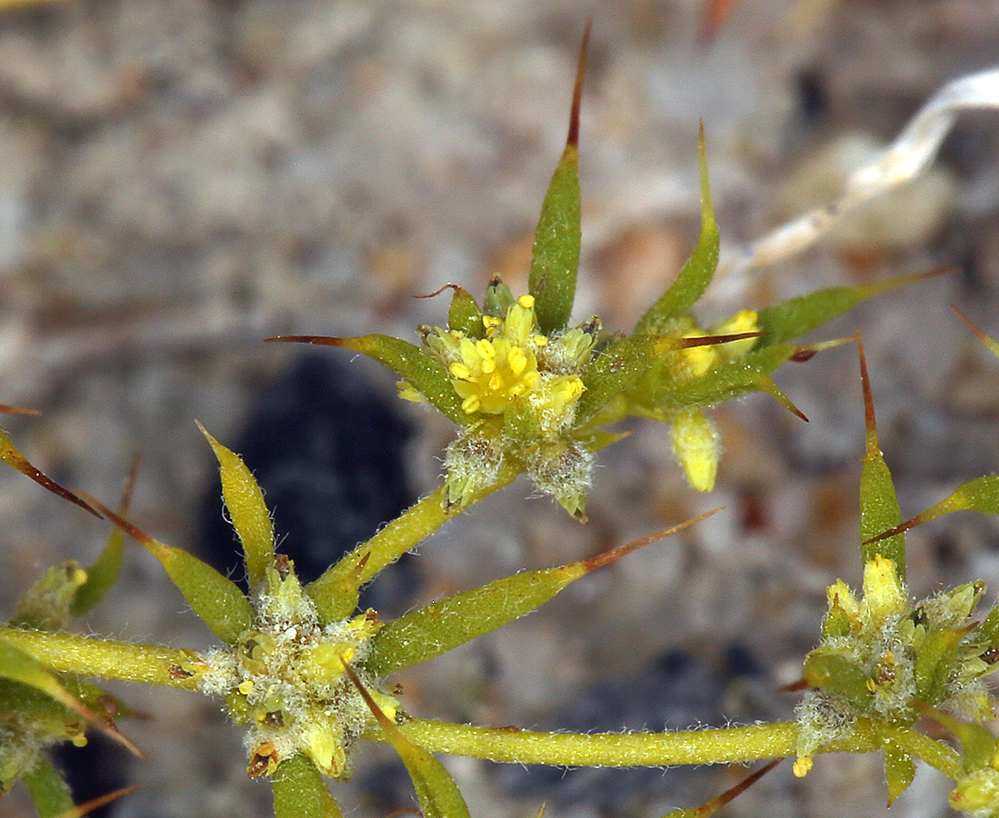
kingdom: Plantae
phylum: Tracheophyta
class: Magnoliopsida
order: Caryophyllales
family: Polygonaceae
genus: Goodmania
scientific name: Goodmania luteola
